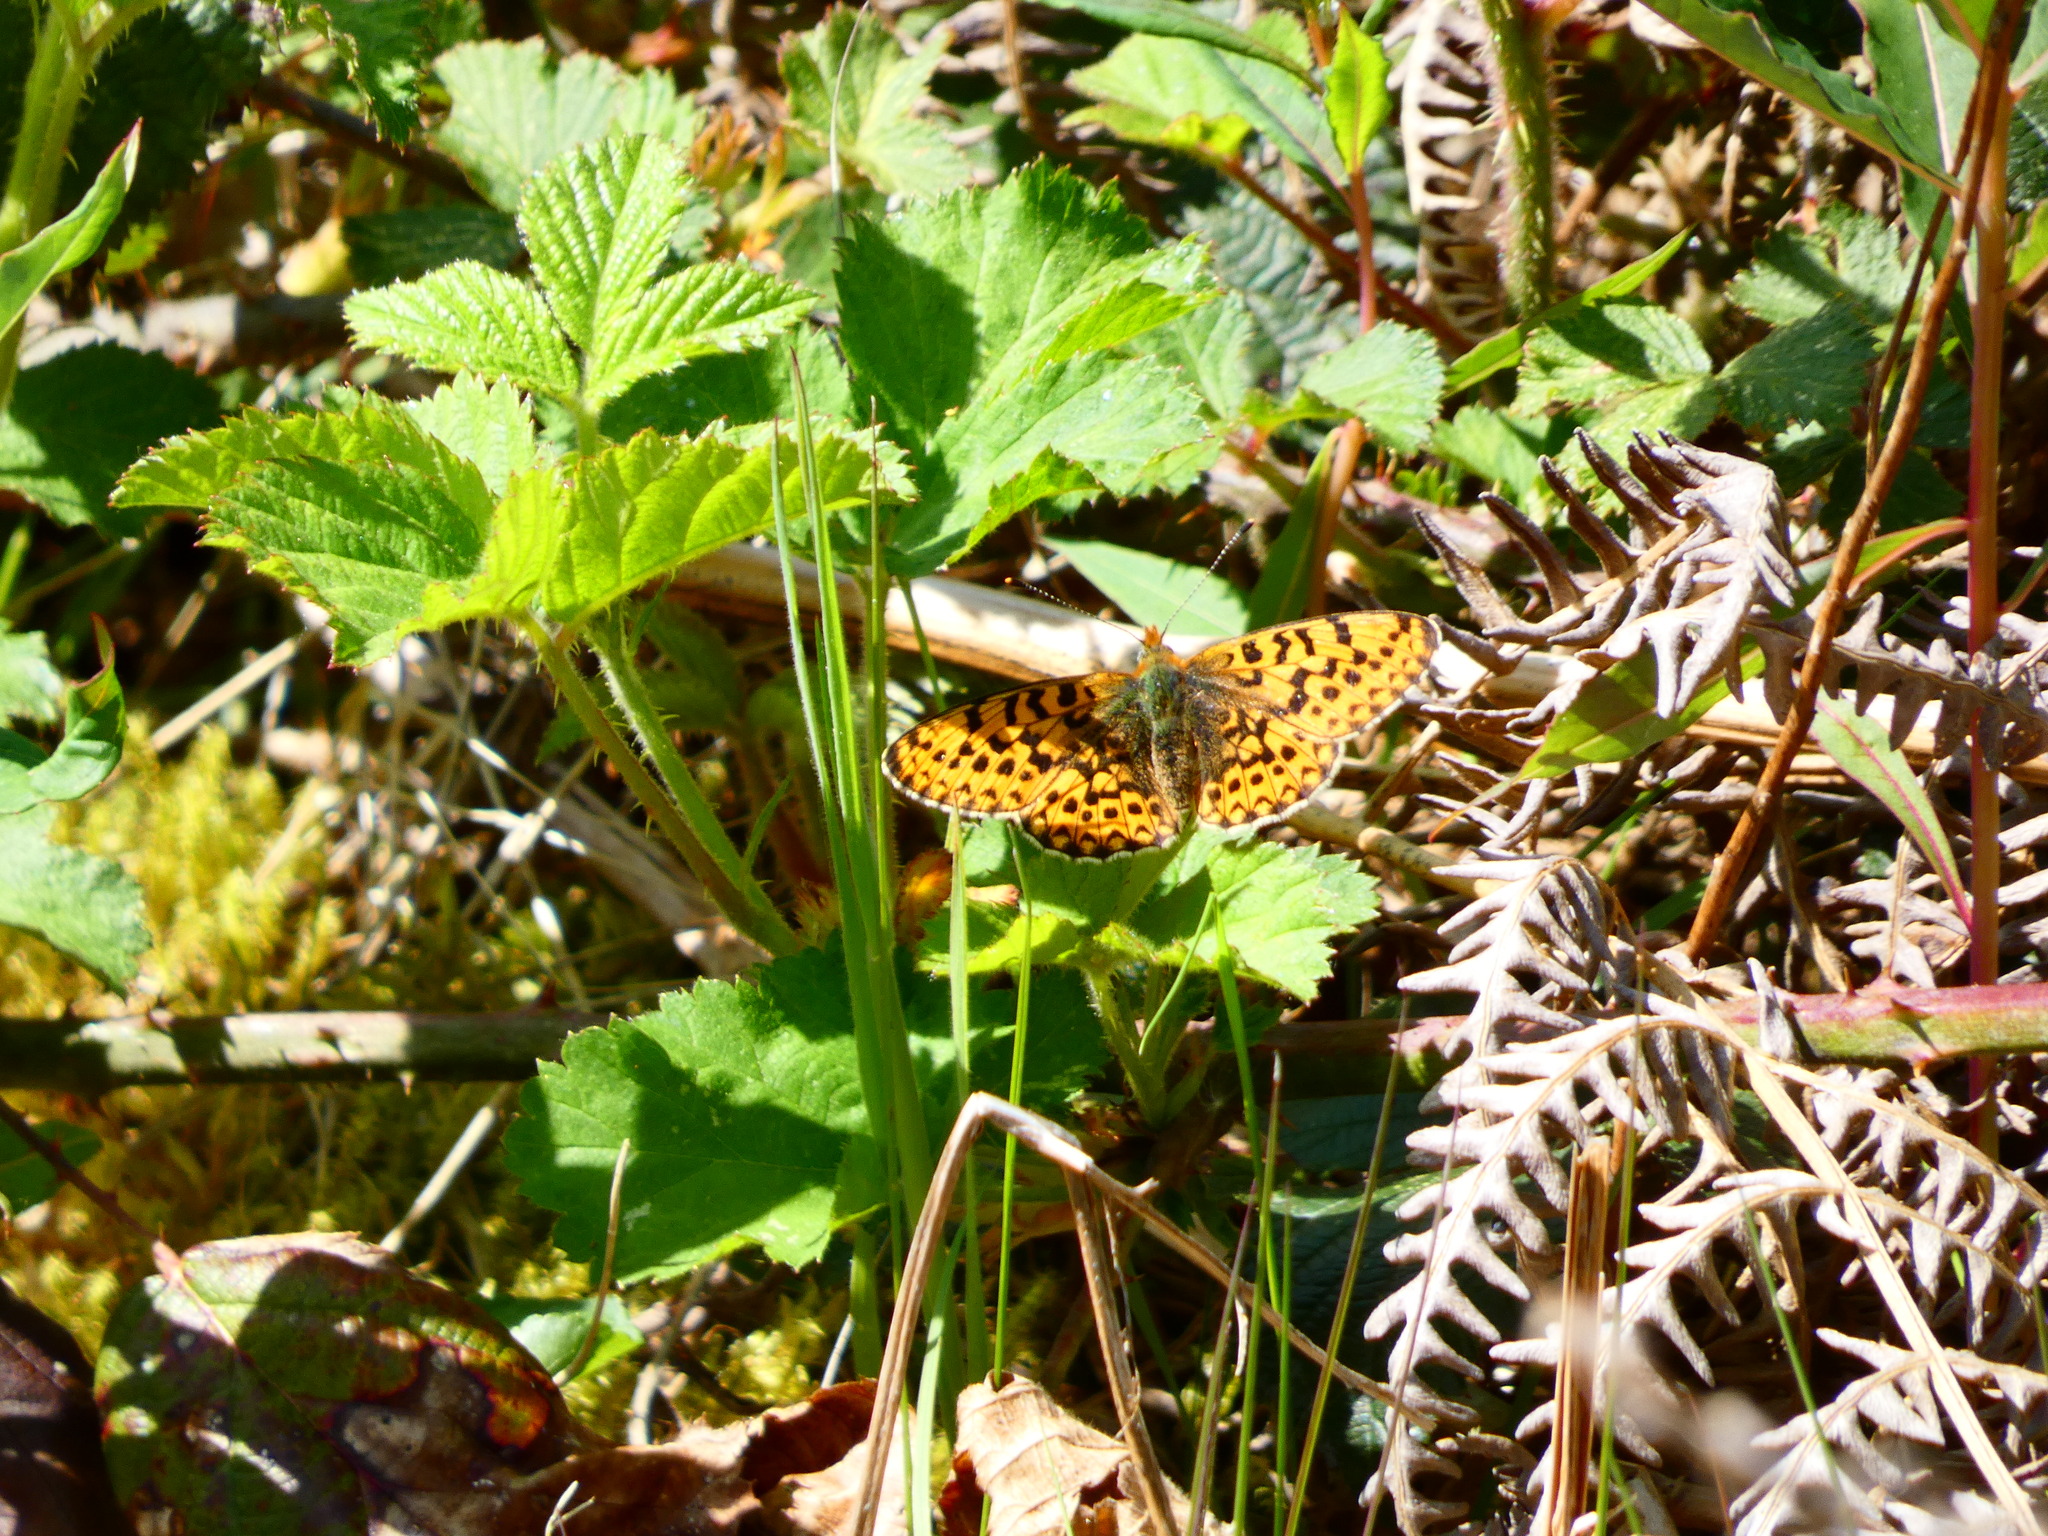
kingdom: Animalia
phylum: Arthropoda
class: Insecta
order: Lepidoptera
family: Nymphalidae
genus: Clossiana
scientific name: Clossiana euphrosyne
